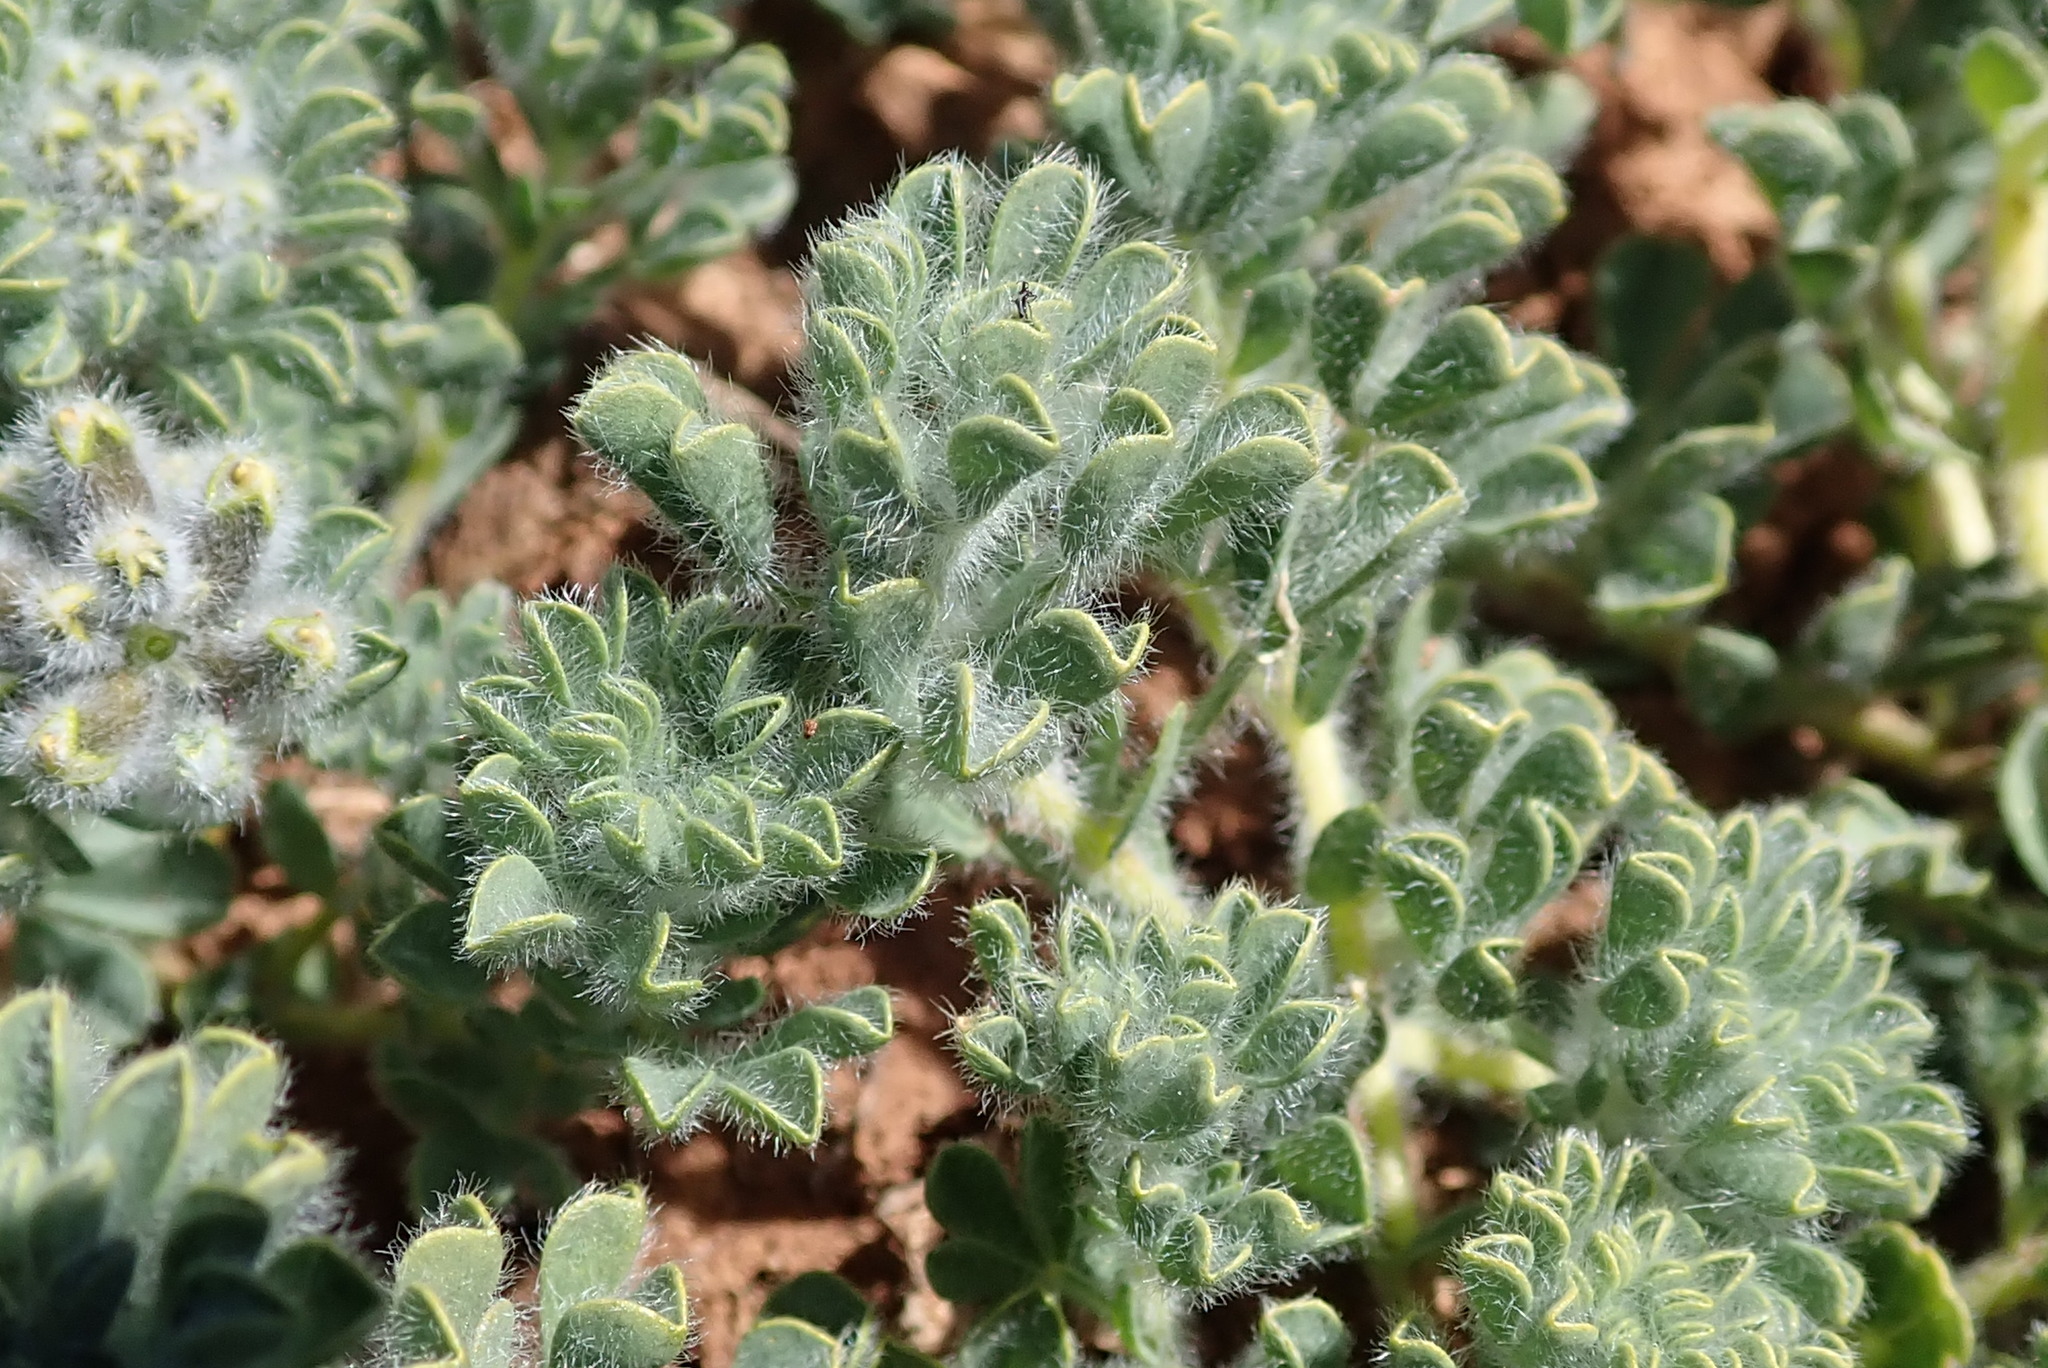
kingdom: Plantae
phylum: Tracheophyta
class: Magnoliopsida
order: Fabales
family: Fabaceae
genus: Euchlora
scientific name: Euchlora hirsuta
